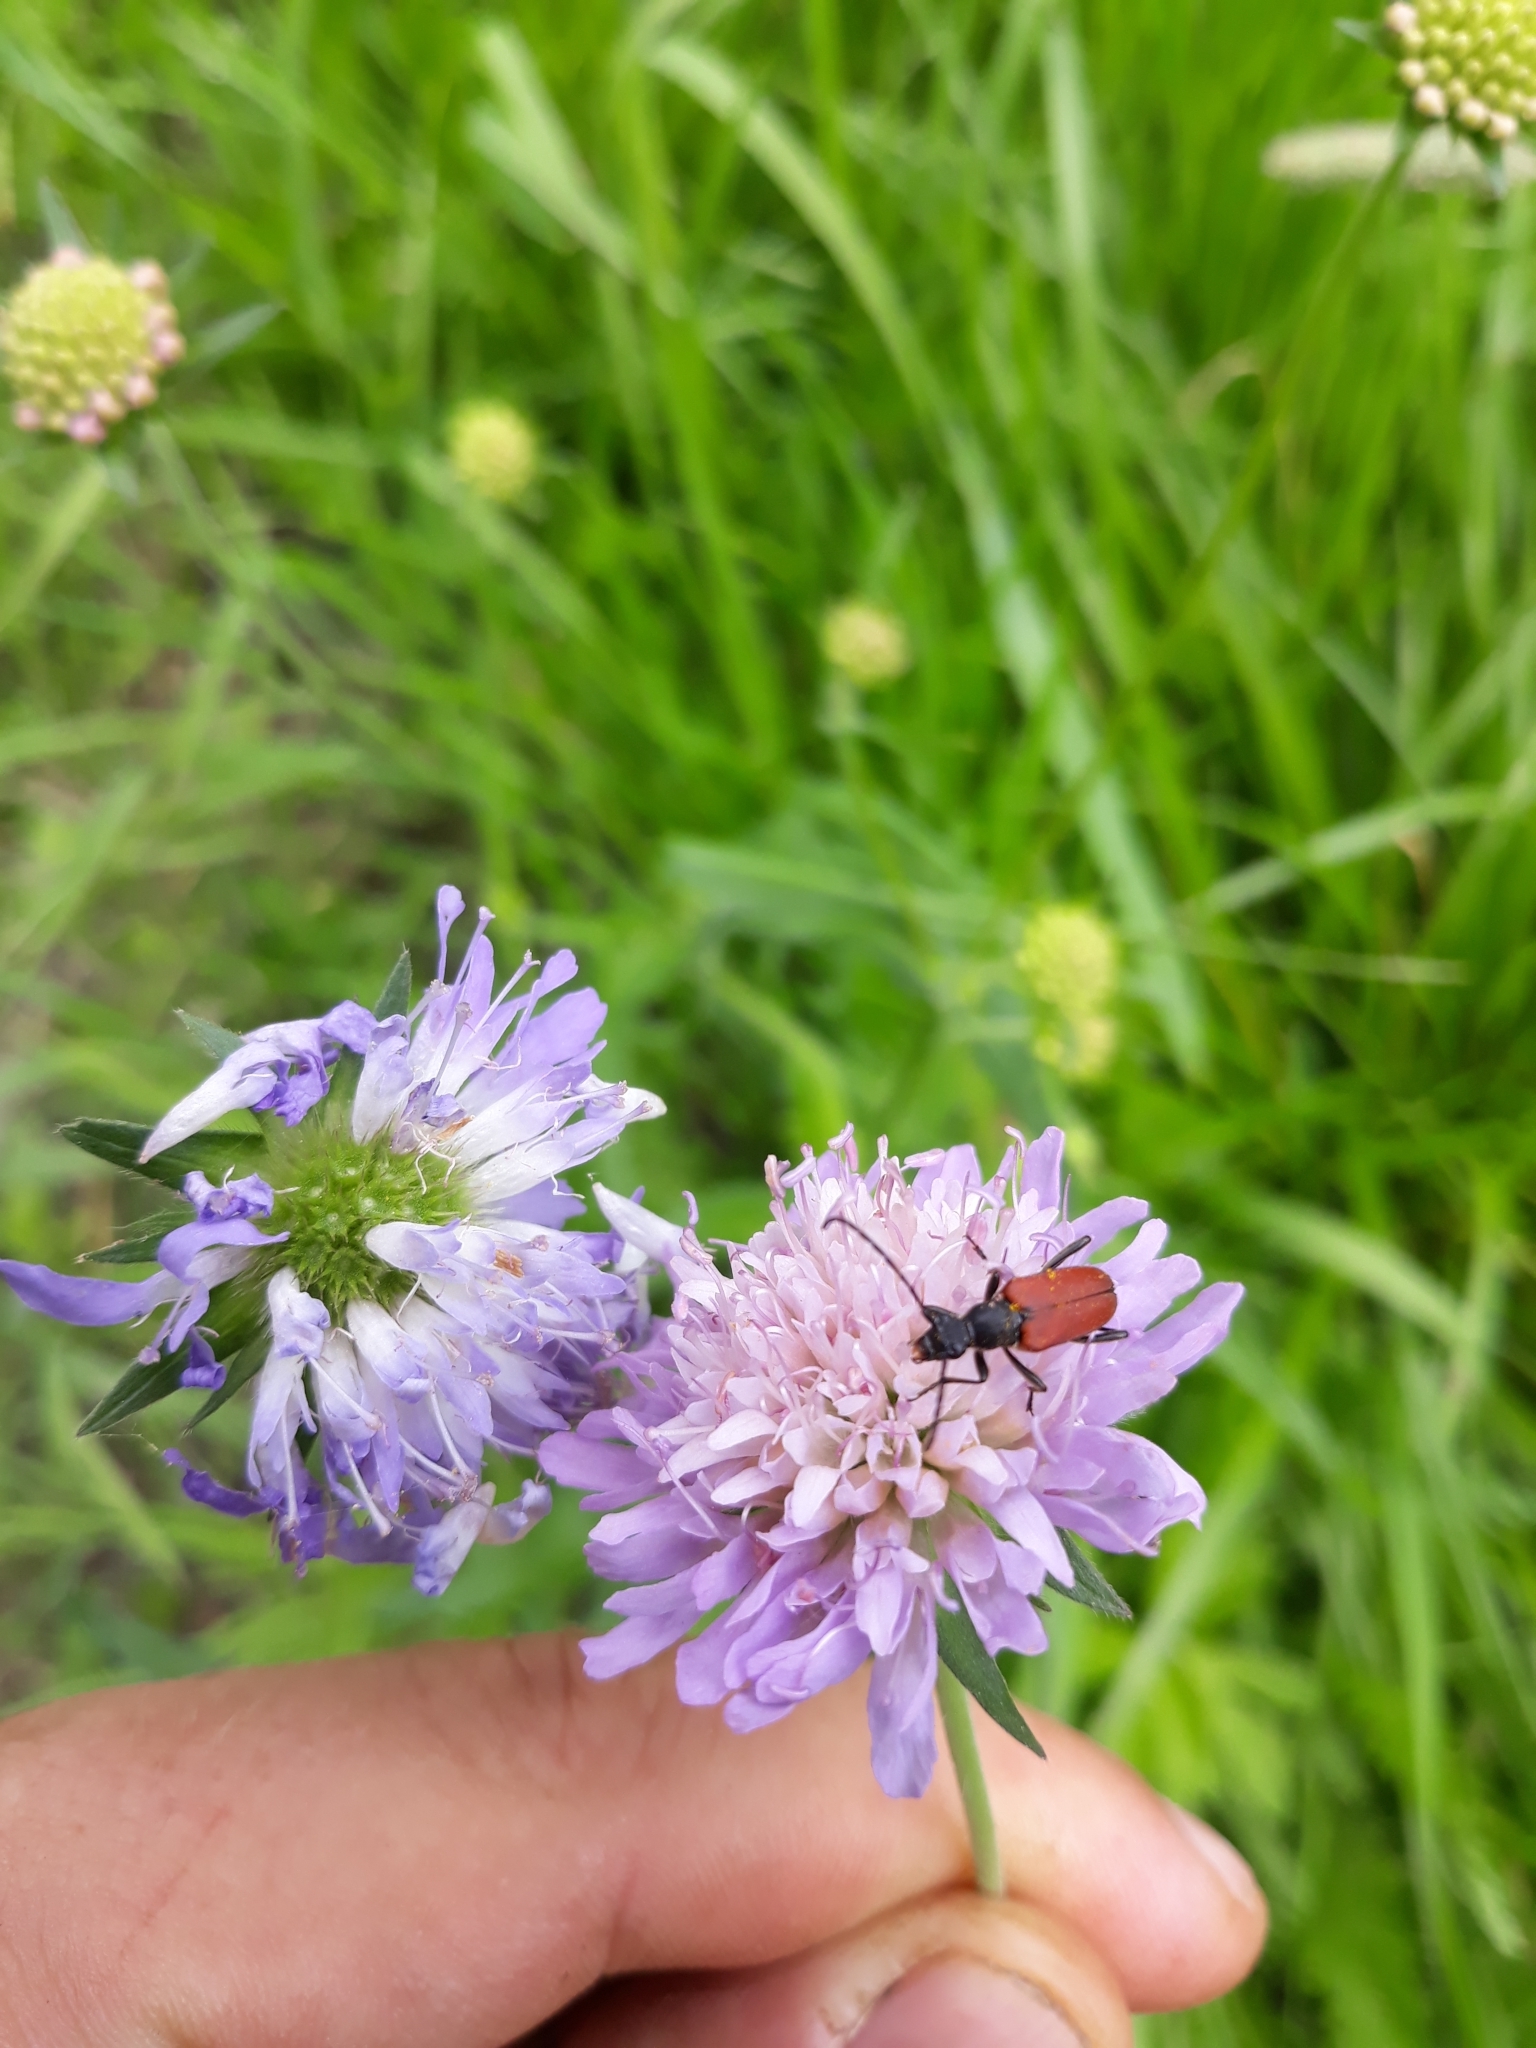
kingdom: Animalia
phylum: Arthropoda
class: Insecta
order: Coleoptera
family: Cerambycidae
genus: Anastrangalia
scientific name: Anastrangalia sanguinolenta
